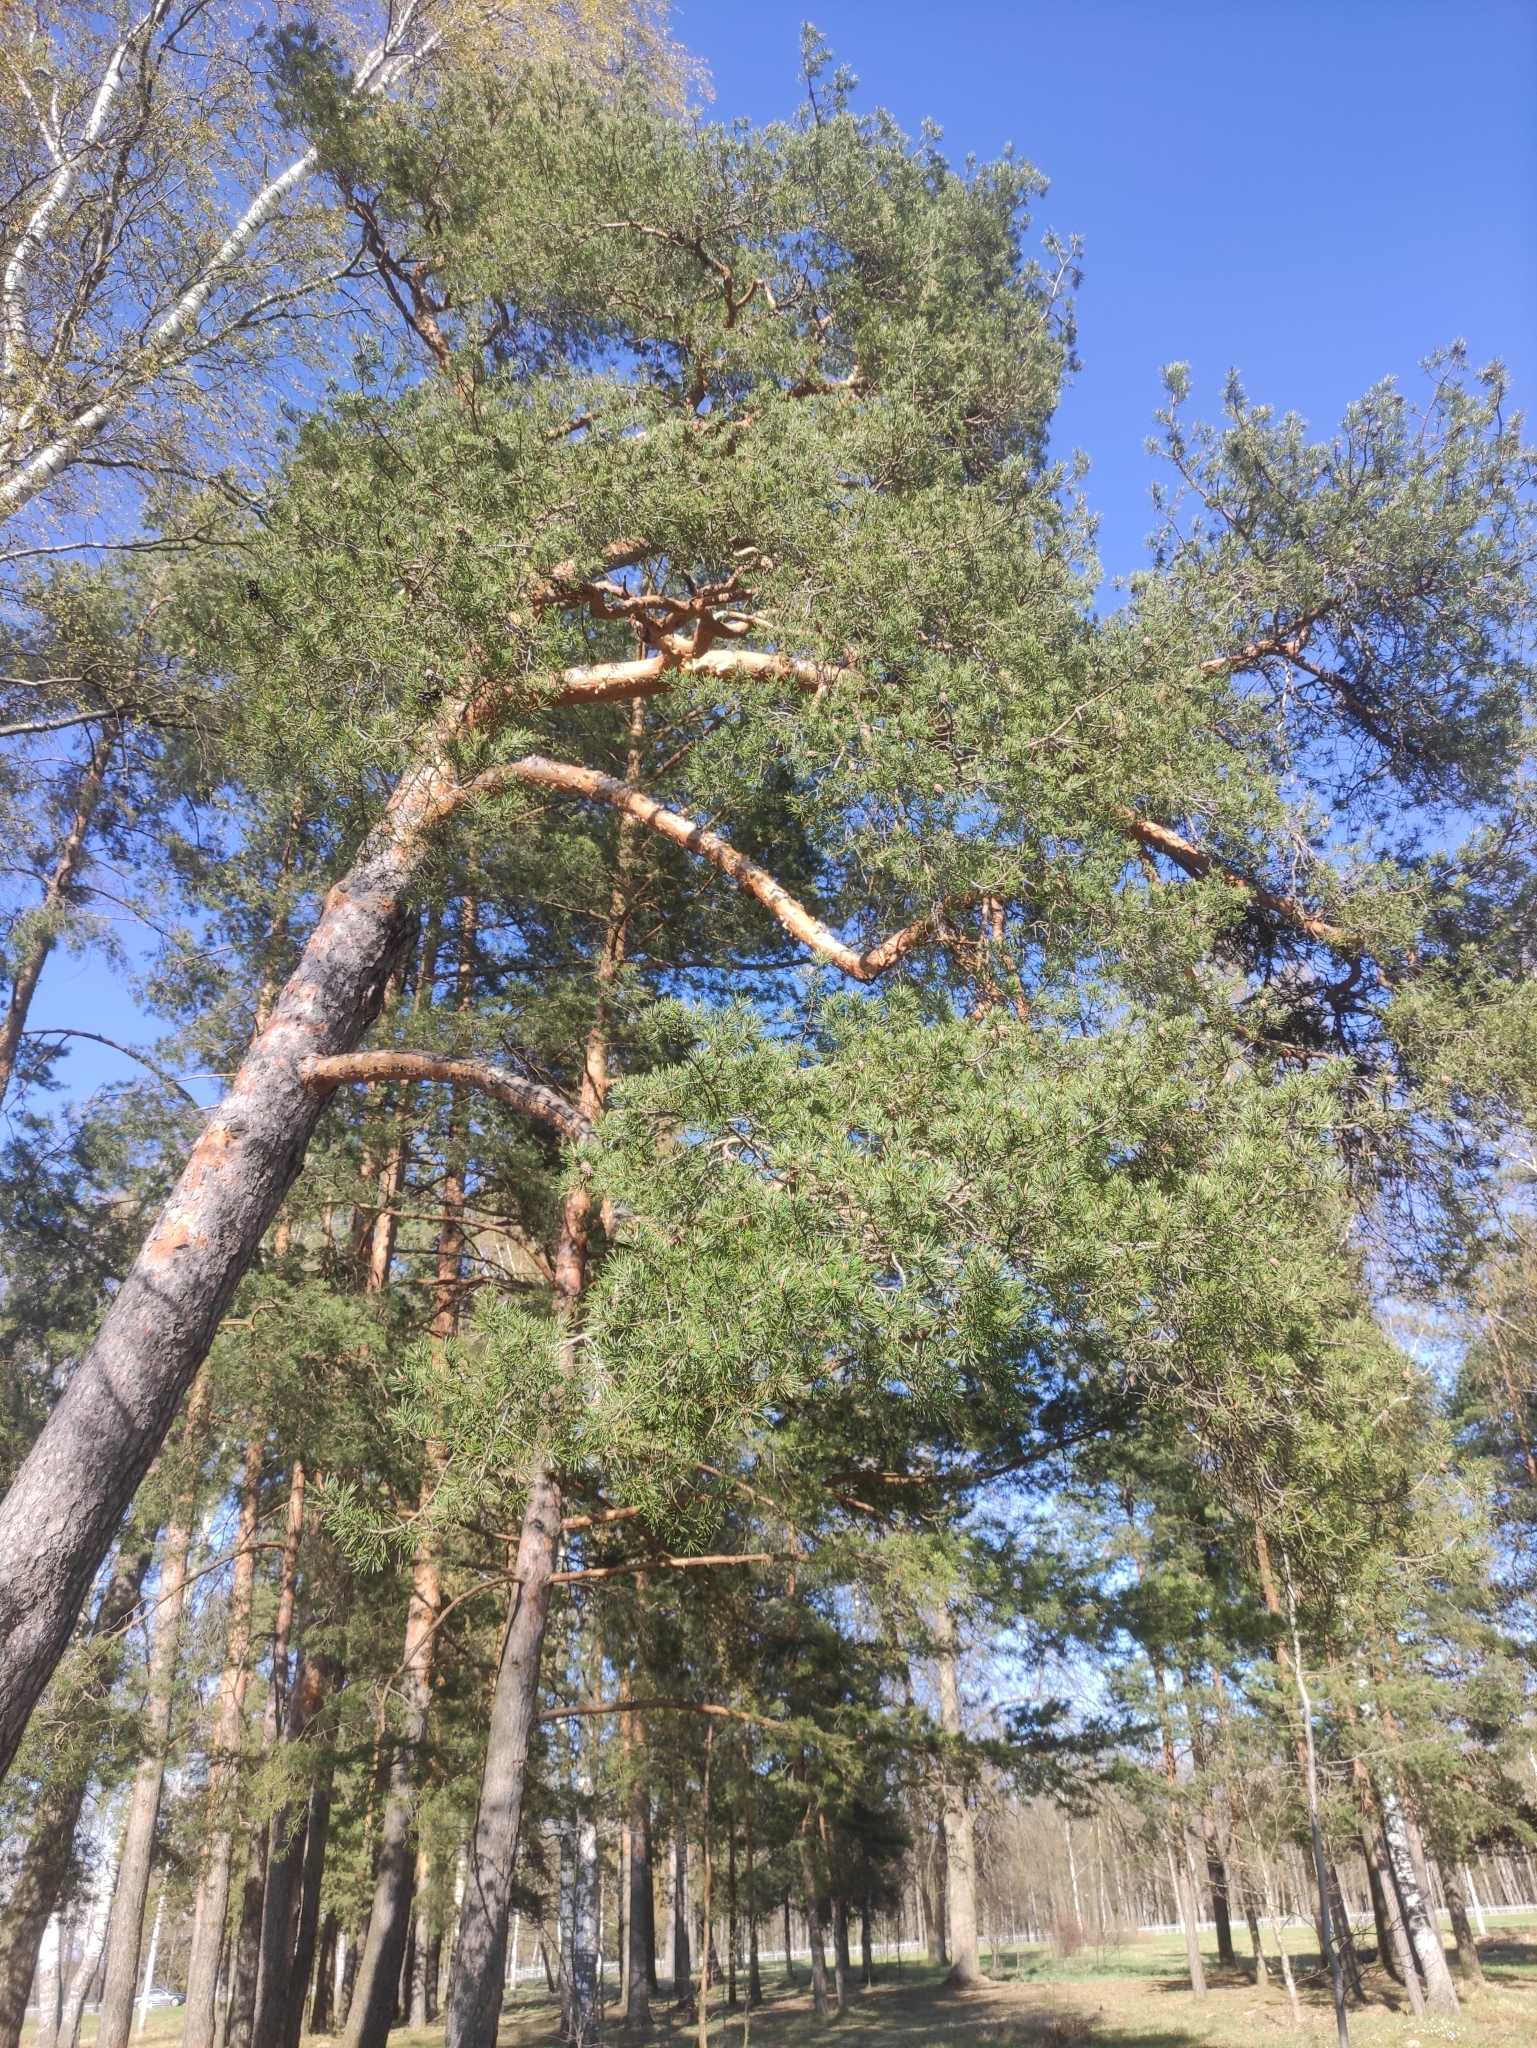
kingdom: Plantae
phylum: Tracheophyta
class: Pinopsida
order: Pinales
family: Pinaceae
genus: Pinus
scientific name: Pinus sylvestris
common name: Scots pine
